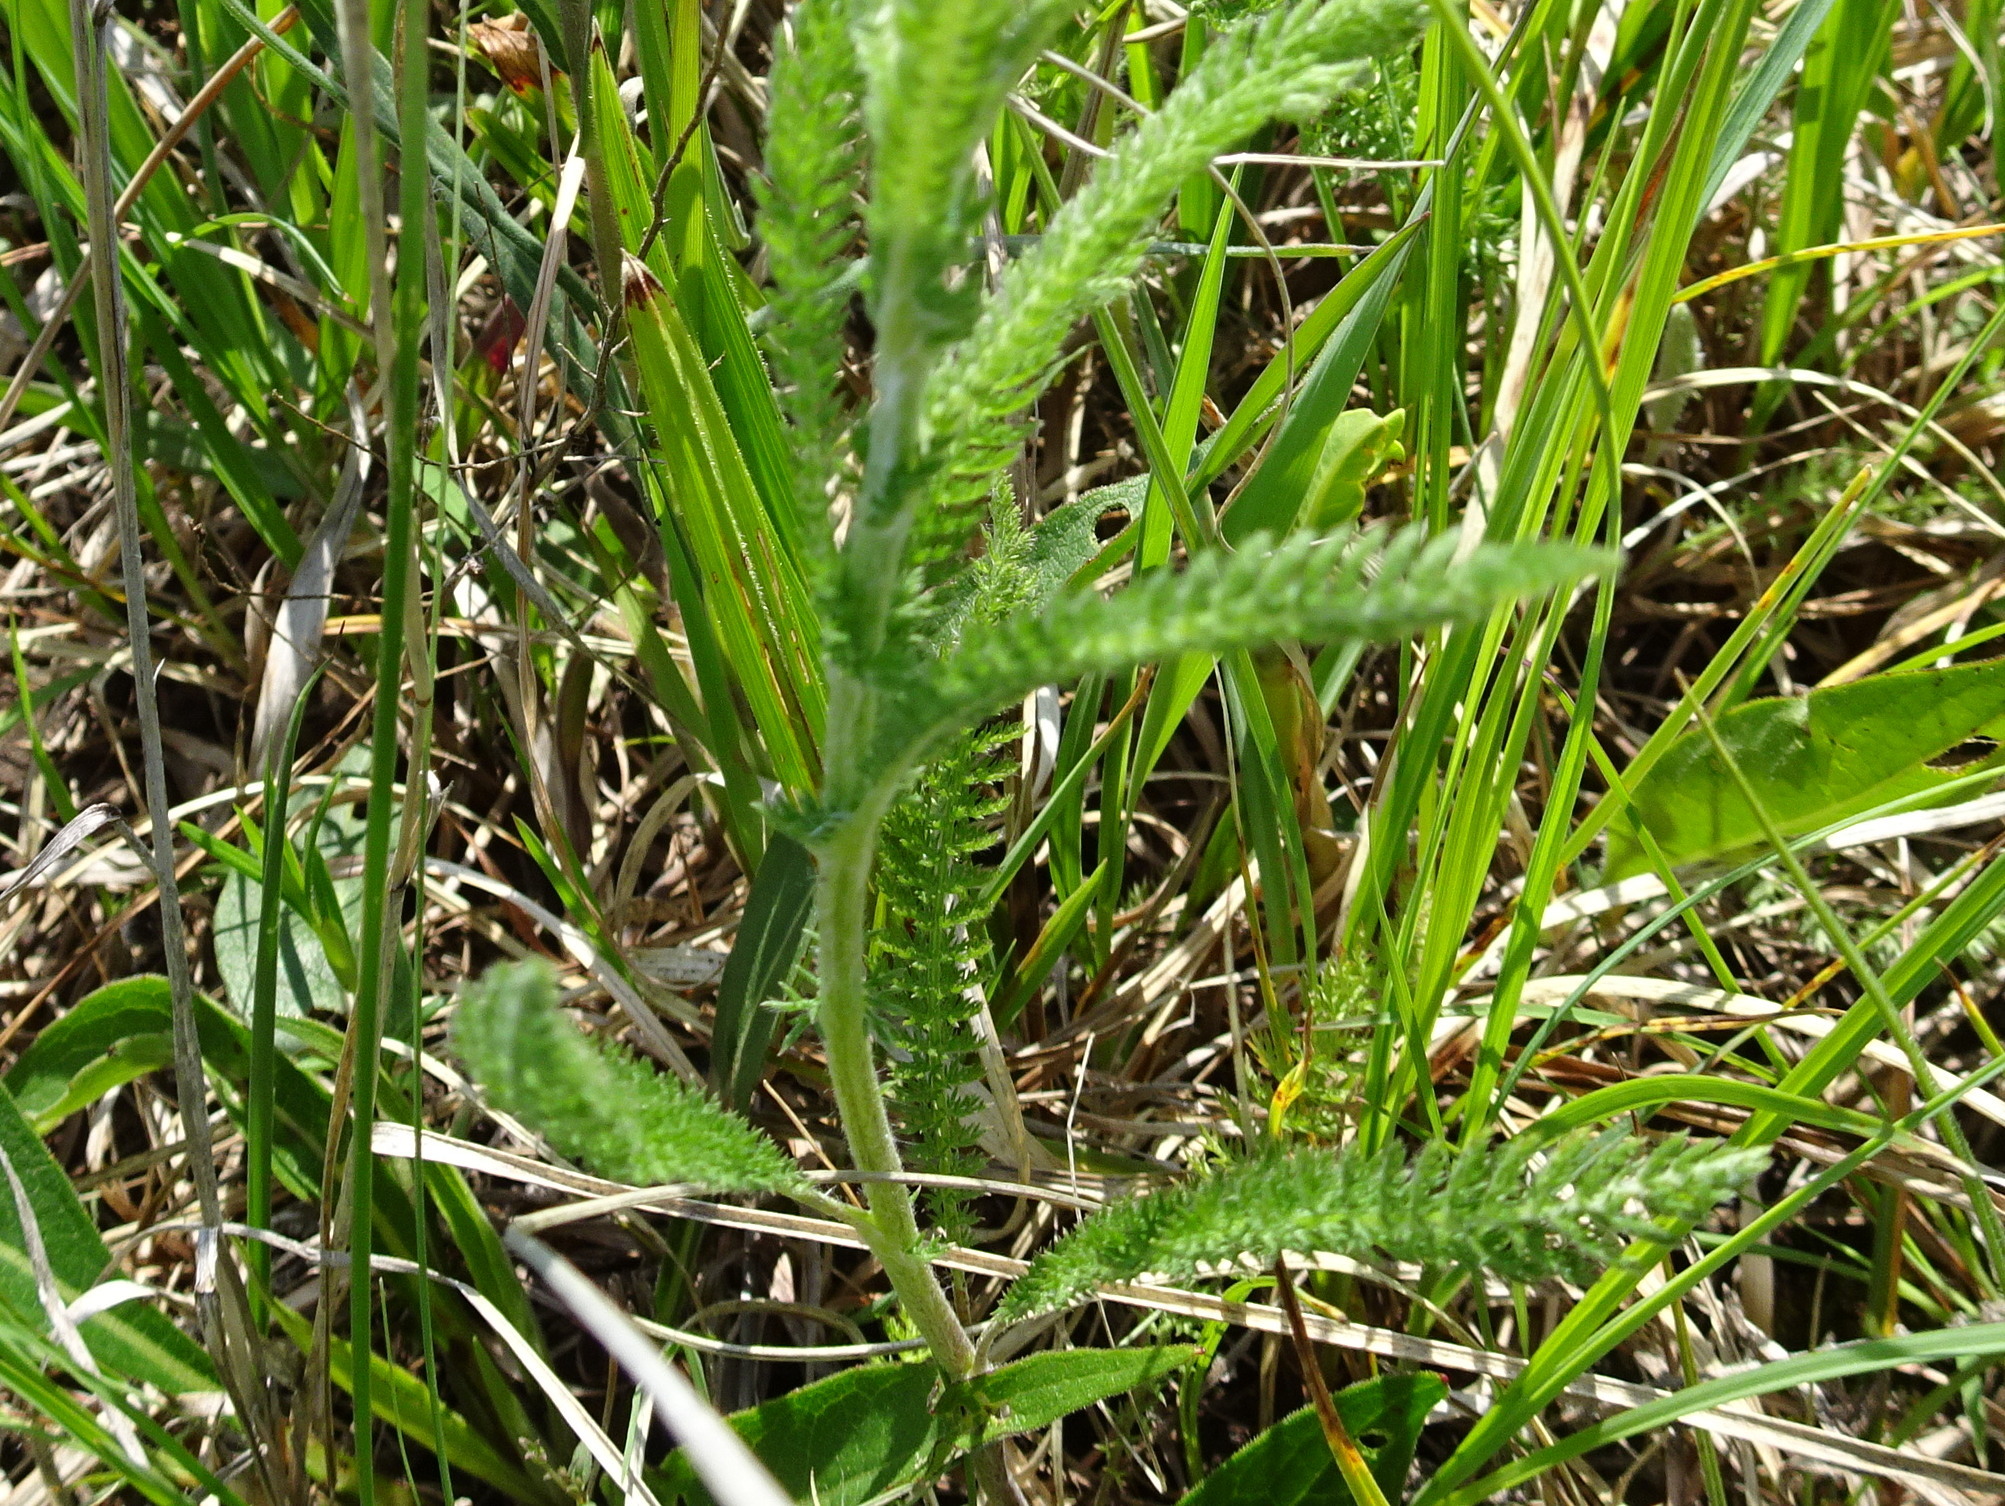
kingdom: Plantae
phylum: Tracheophyta
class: Magnoliopsida
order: Asterales
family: Asteraceae
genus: Achillea
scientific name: Achillea millefolium
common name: Yarrow
